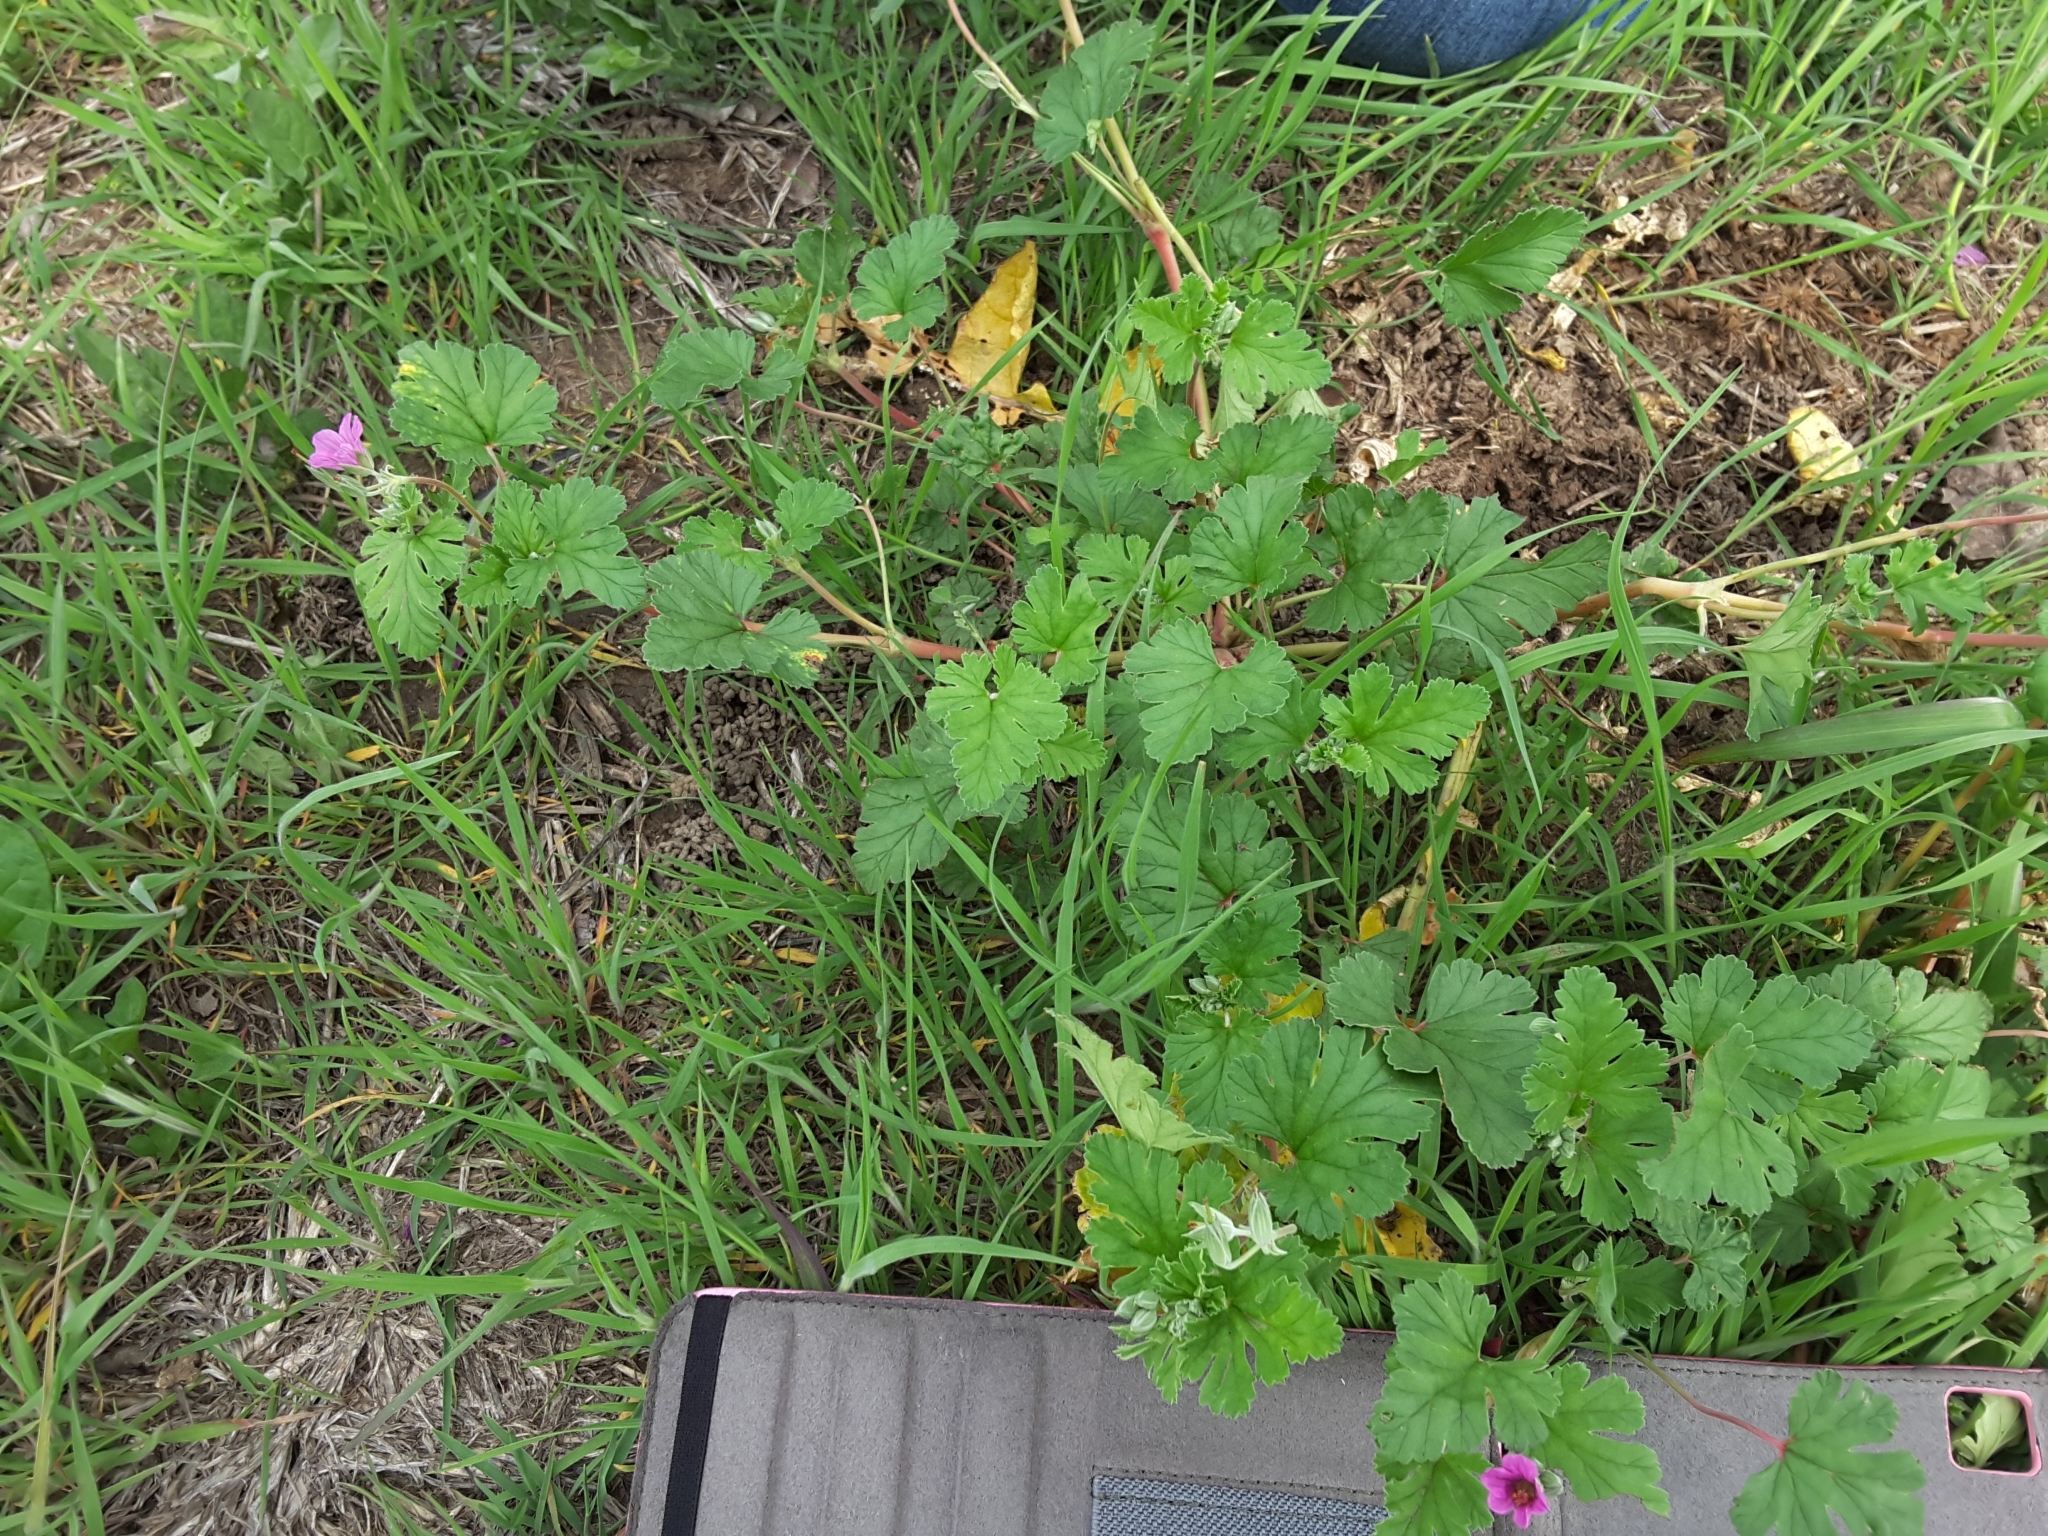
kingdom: Plantae
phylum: Tracheophyta
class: Magnoliopsida
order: Geraniales
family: Geraniaceae
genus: Erodium
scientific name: Erodium texanum
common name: Texas stork's-bill
